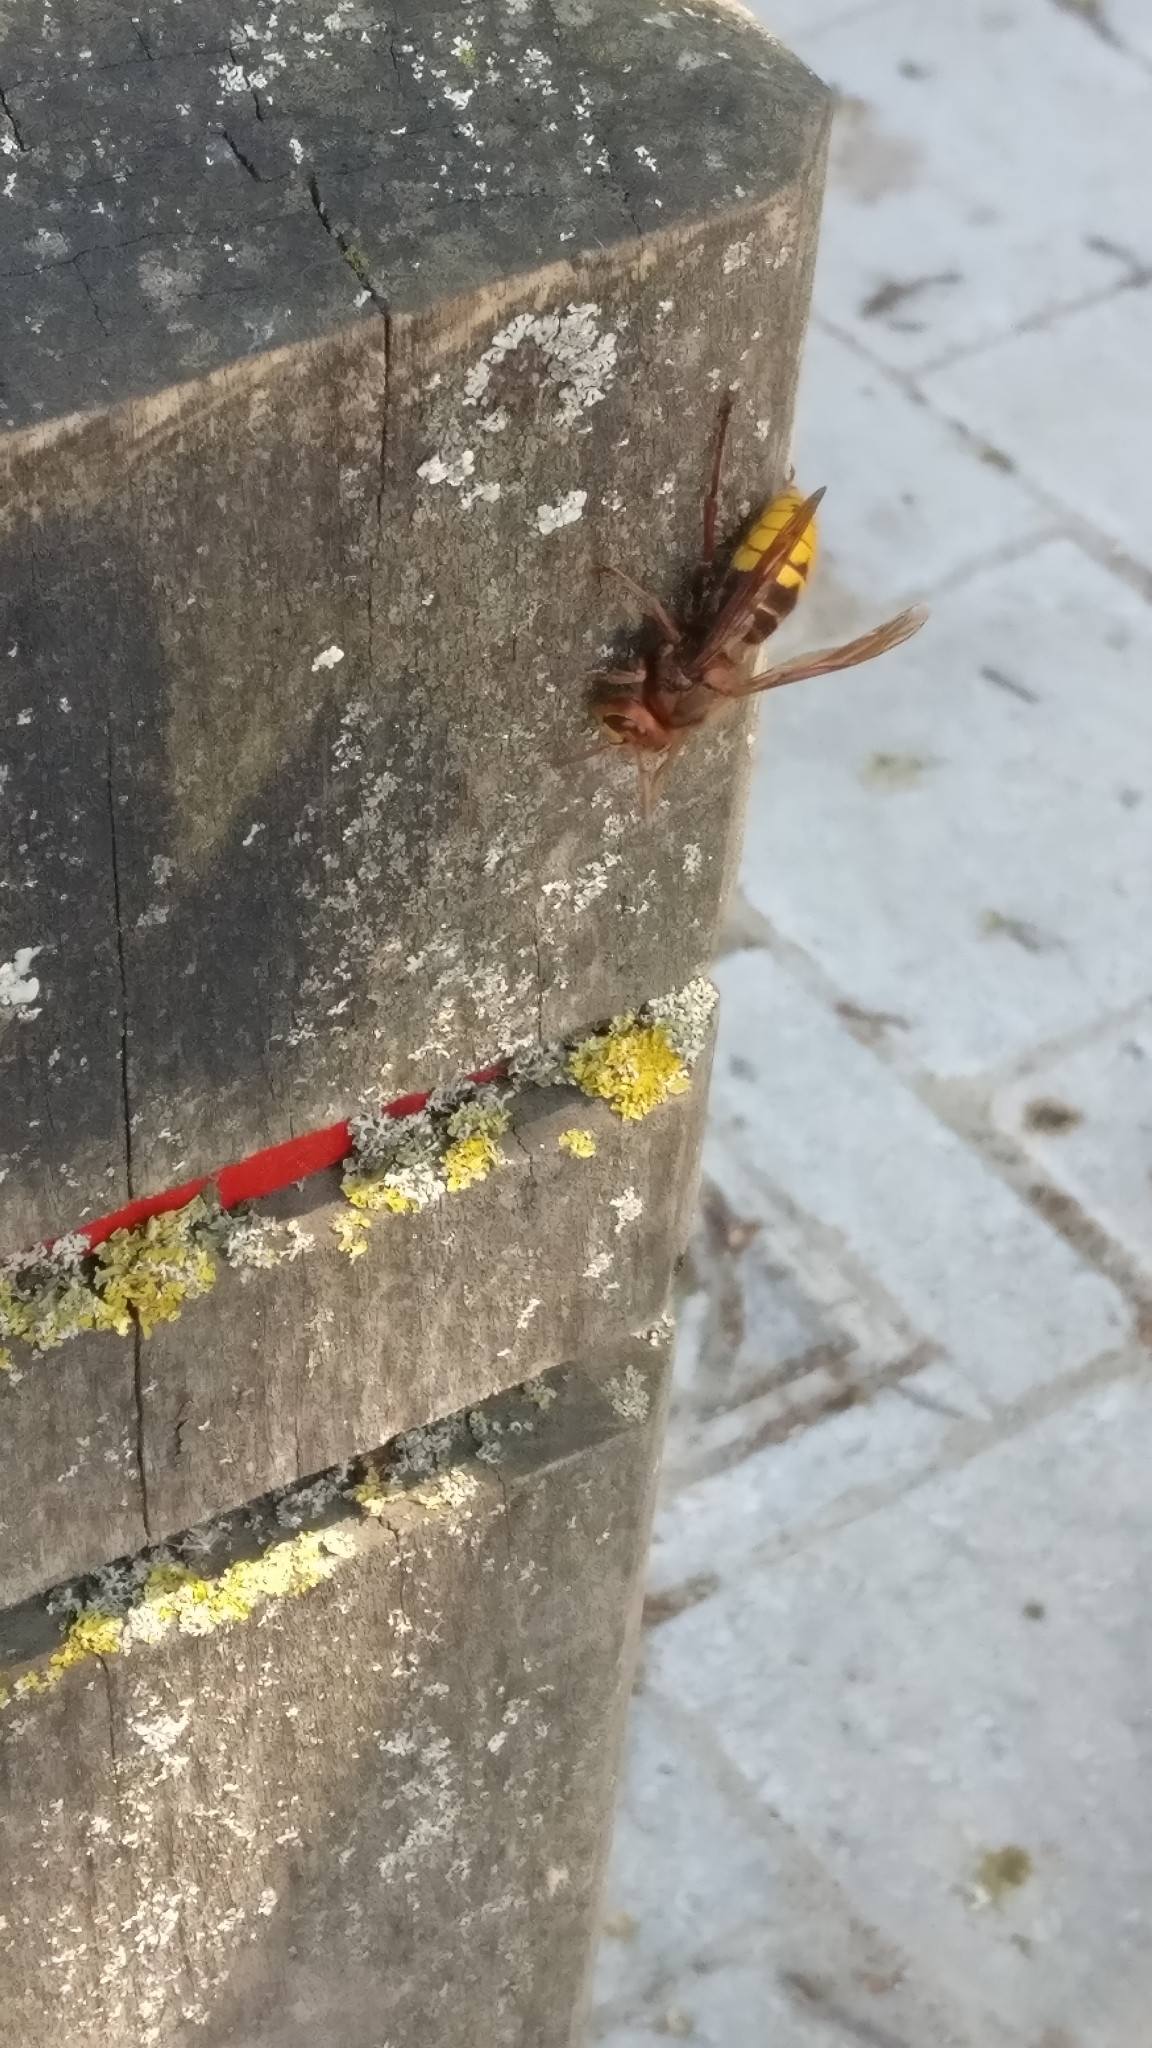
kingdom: Animalia
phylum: Arthropoda
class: Insecta
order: Hymenoptera
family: Vespidae
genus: Vespa
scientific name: Vespa crabro
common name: Hornet
